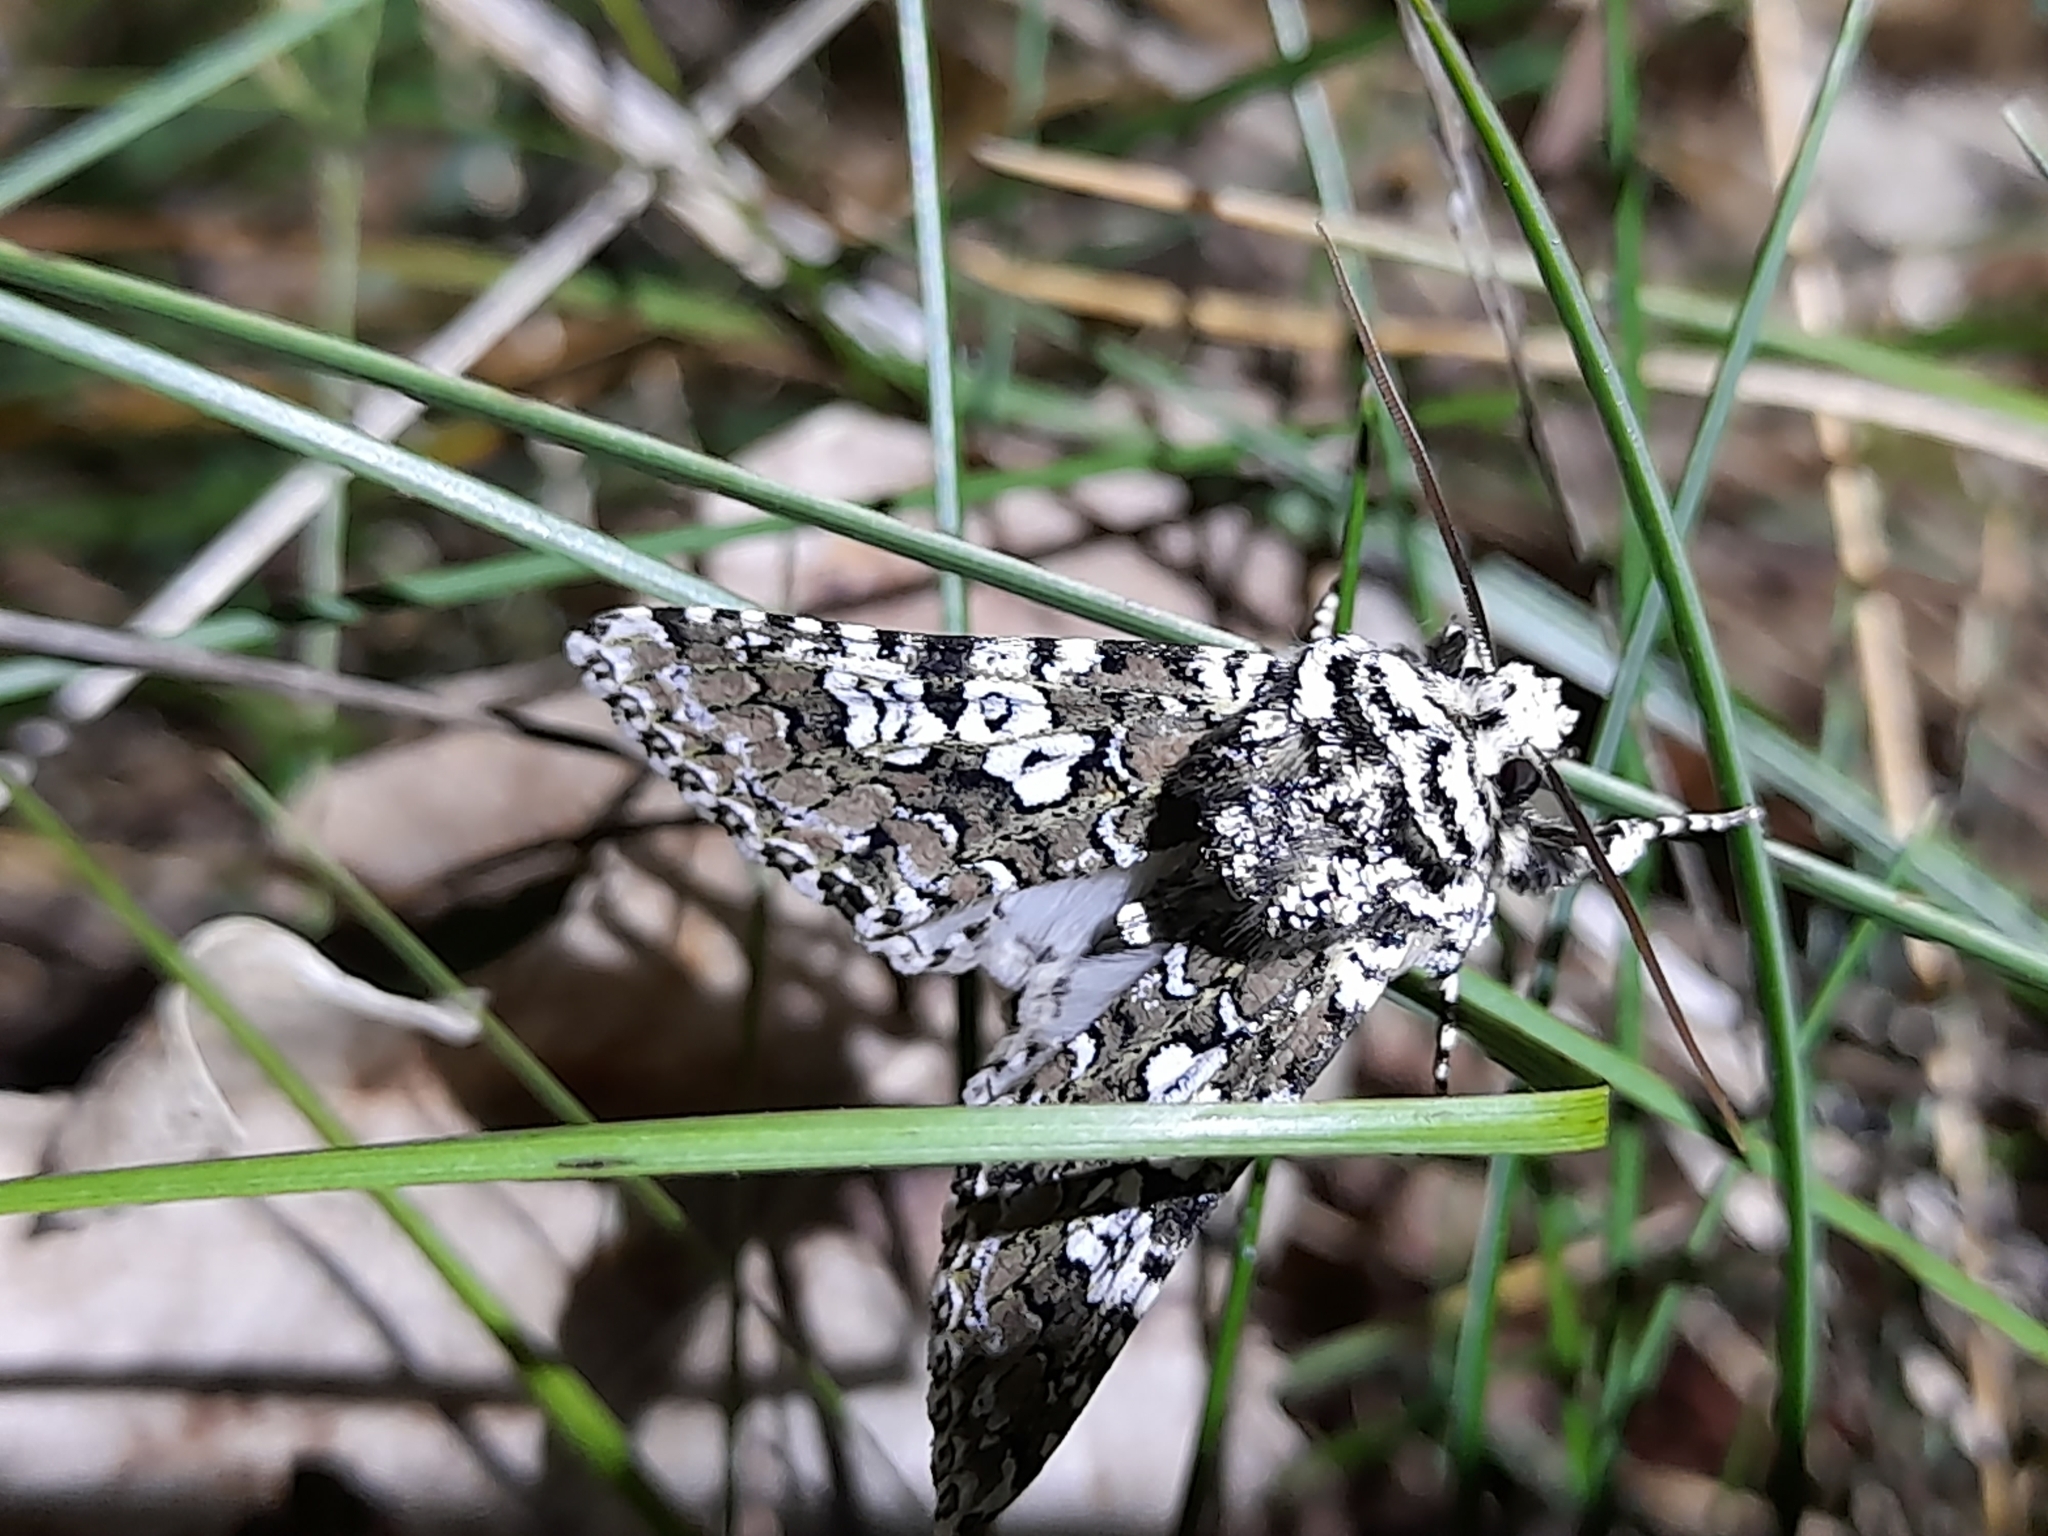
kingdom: Animalia
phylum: Arthropoda
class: Insecta
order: Lepidoptera
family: Noctuidae
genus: Lamprosticta
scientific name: Lamprosticta culta
